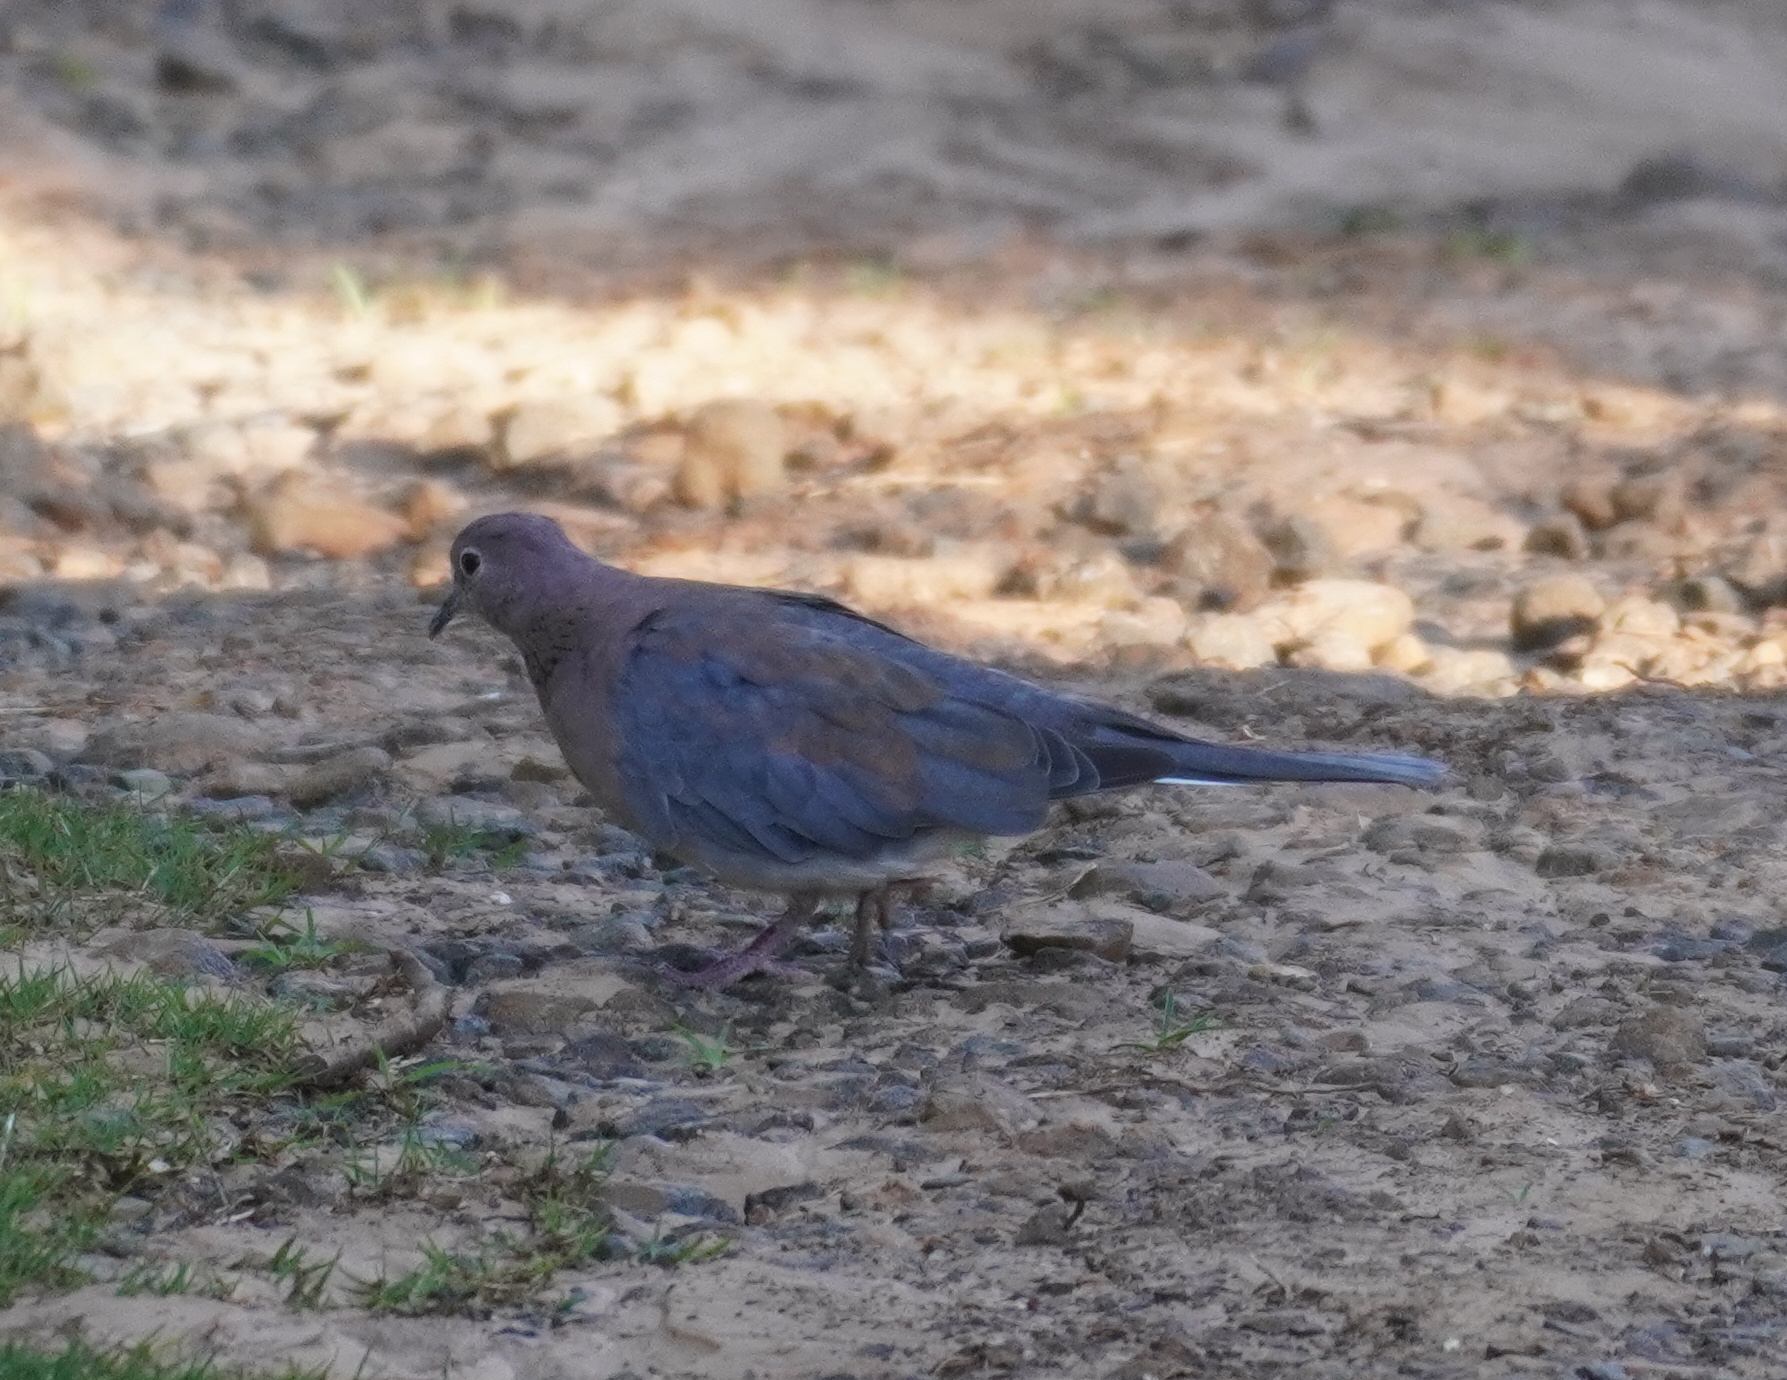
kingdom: Animalia
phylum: Chordata
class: Aves
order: Columbiformes
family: Columbidae
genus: Spilopelia
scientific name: Spilopelia senegalensis
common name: Laughing dove
